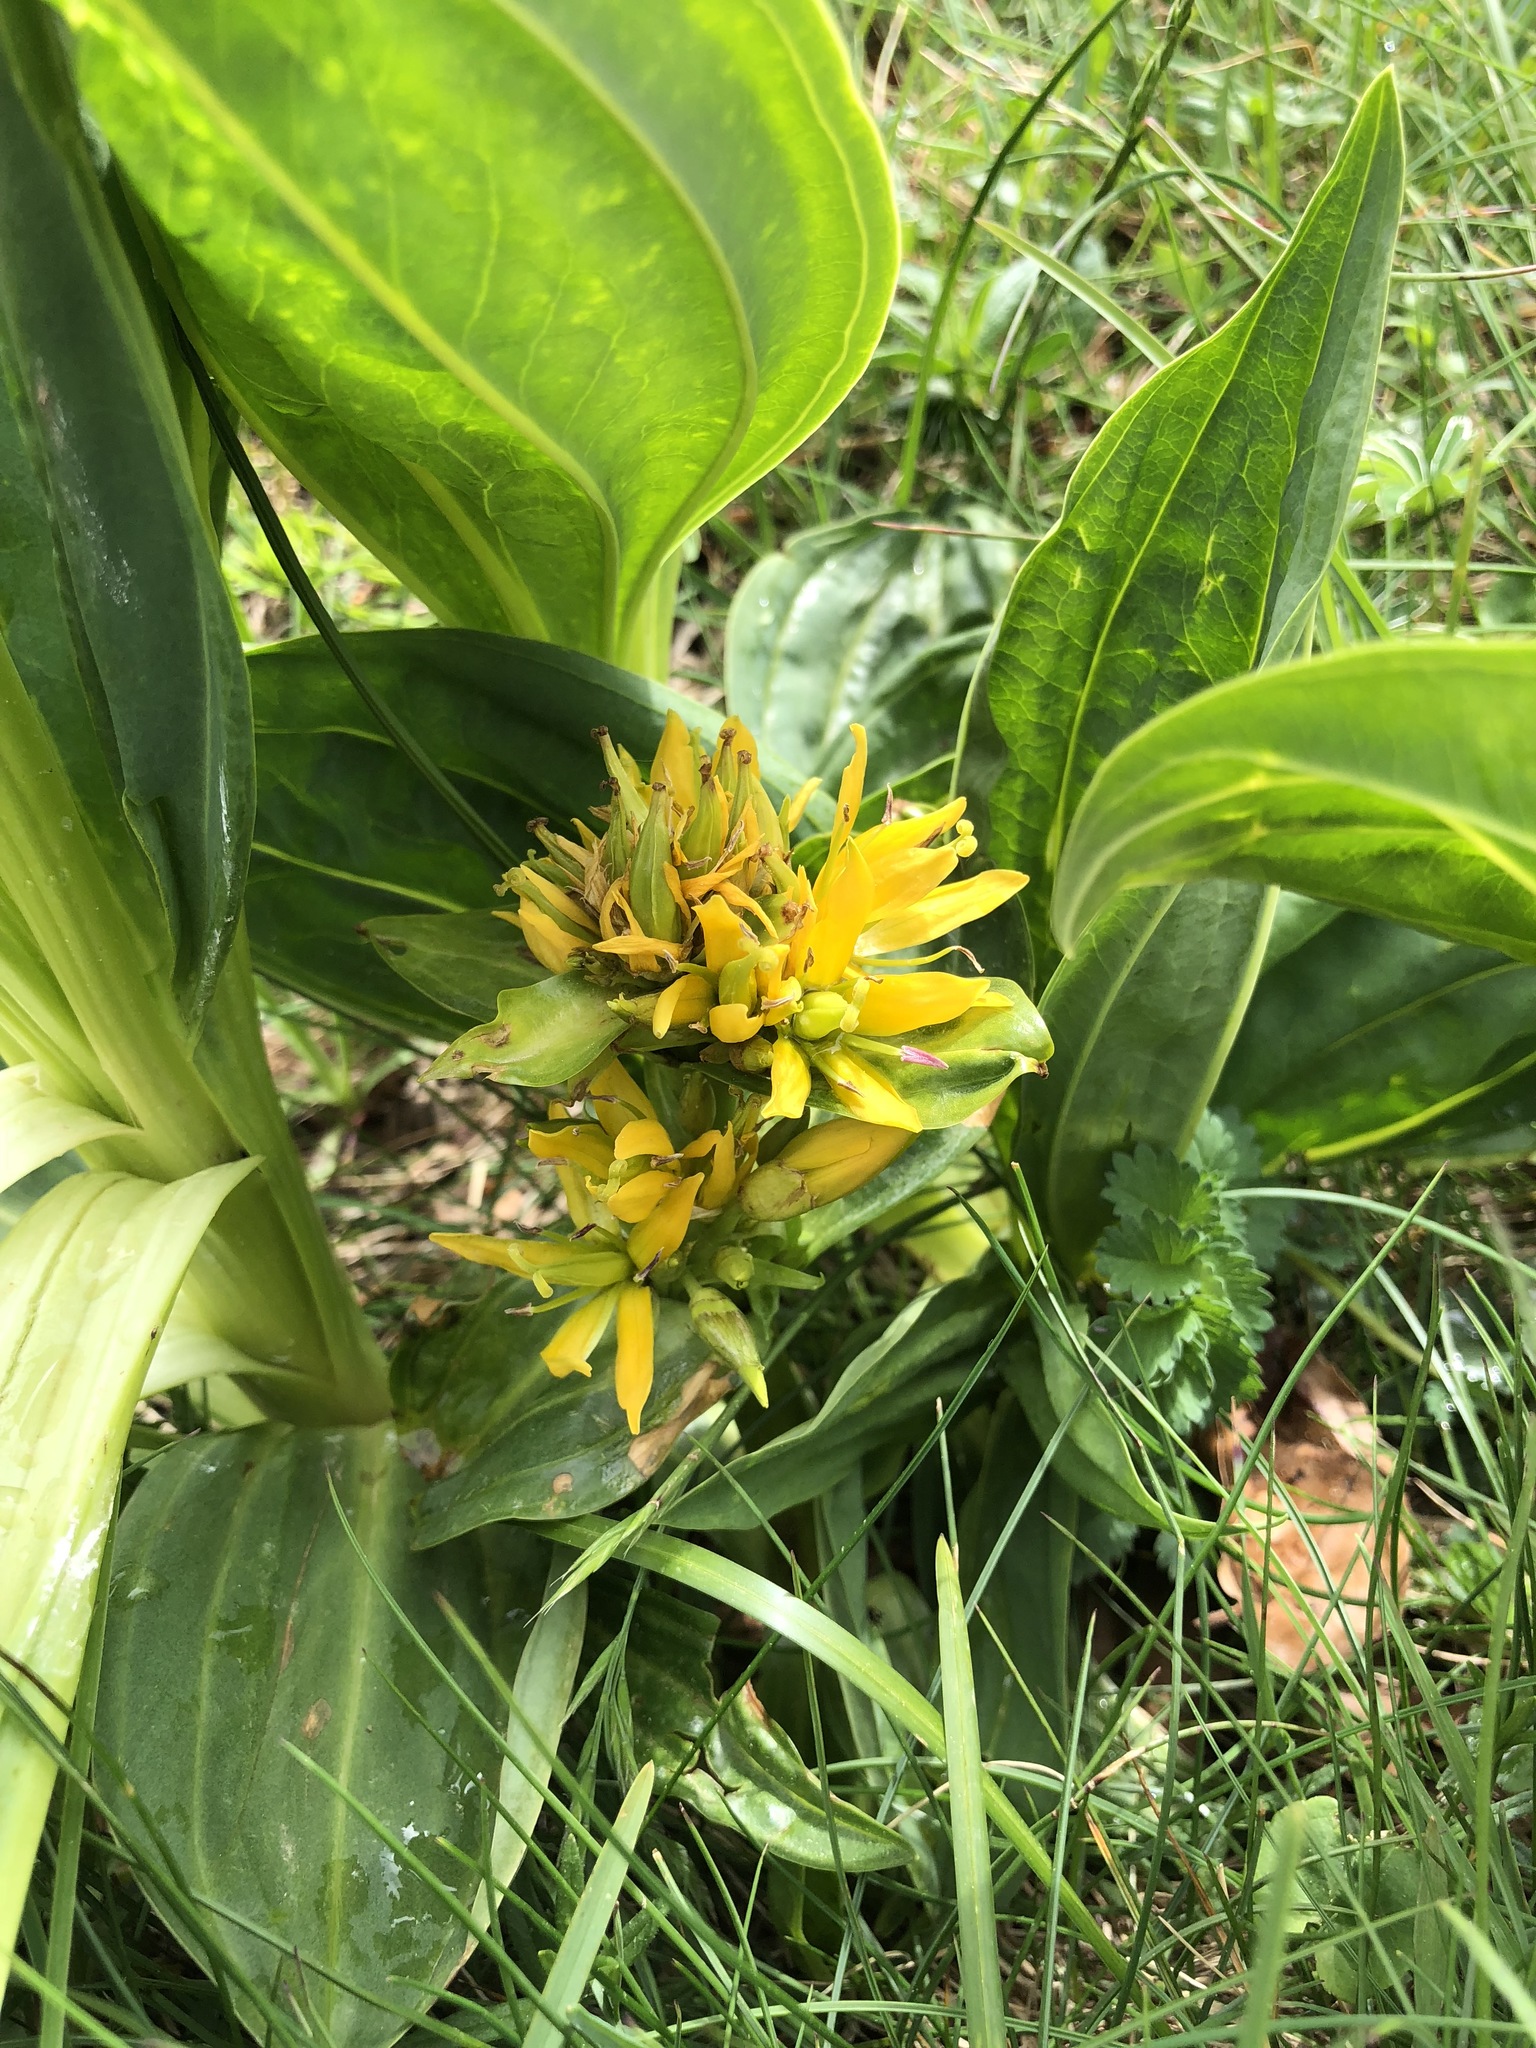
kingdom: Plantae
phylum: Tracheophyta
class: Magnoliopsida
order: Gentianales
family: Gentianaceae
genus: Gentiana
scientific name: Gentiana lutea
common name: Great yellow gentian
